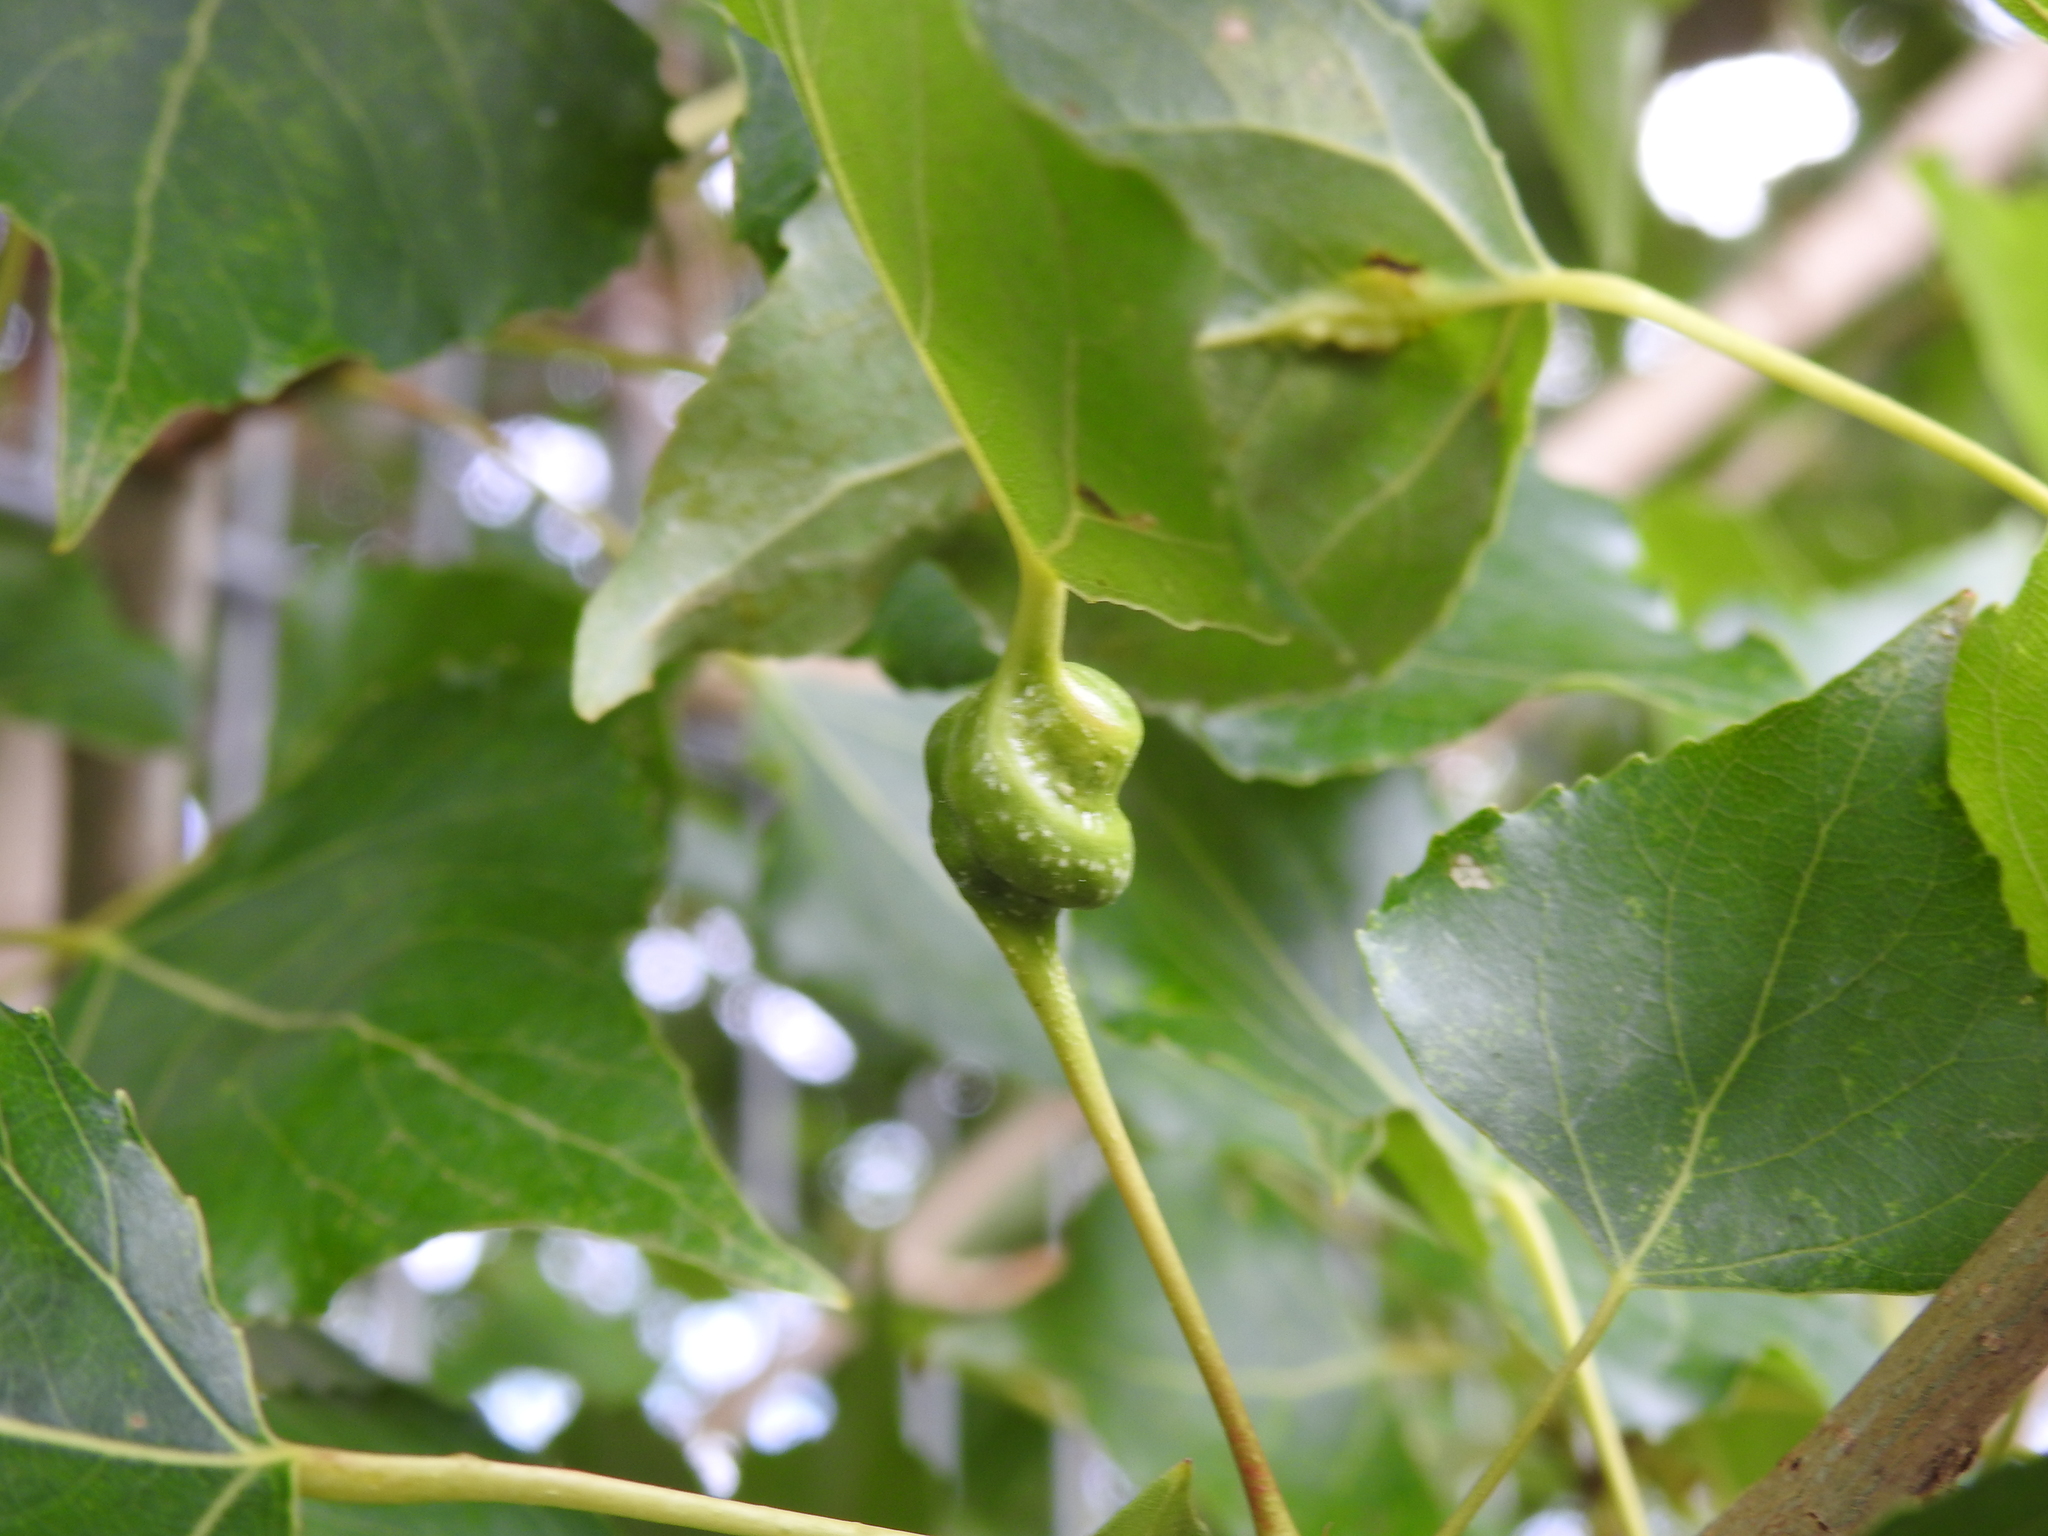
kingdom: Animalia
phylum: Arthropoda
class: Insecta
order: Hemiptera
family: Aphididae
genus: Pemphigus
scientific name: Pemphigus spyrothecae
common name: Aphid
